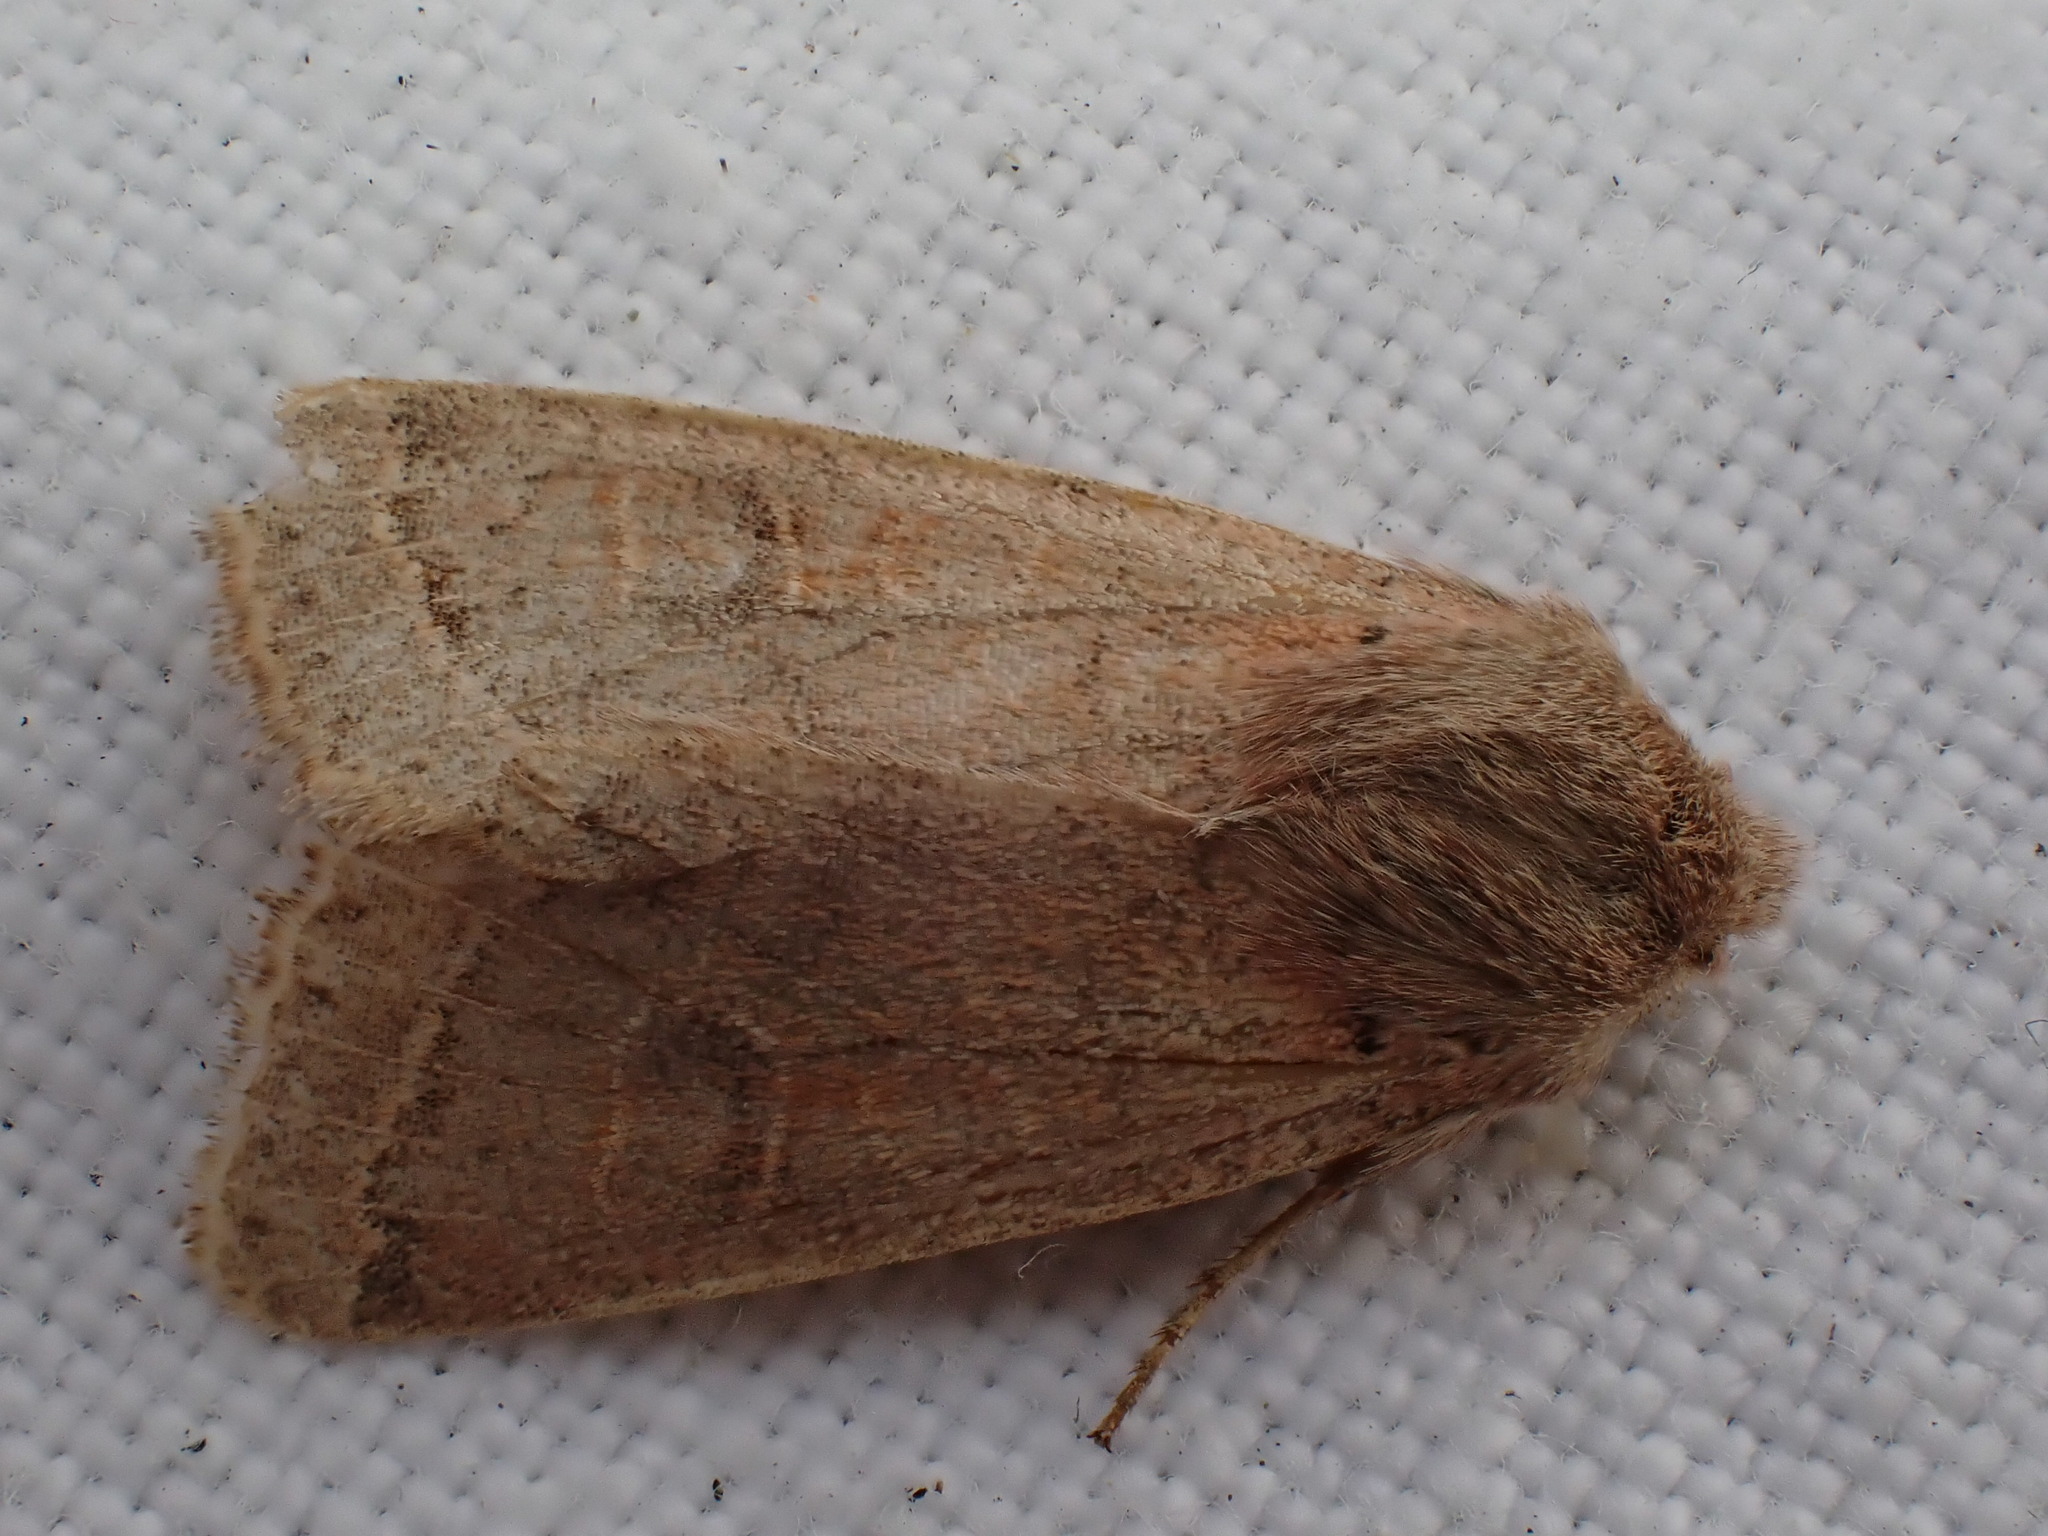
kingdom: Animalia
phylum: Arthropoda
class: Insecta
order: Lepidoptera
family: Noctuidae
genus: Orthosia
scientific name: Orthosia cerasi
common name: Common quaker
